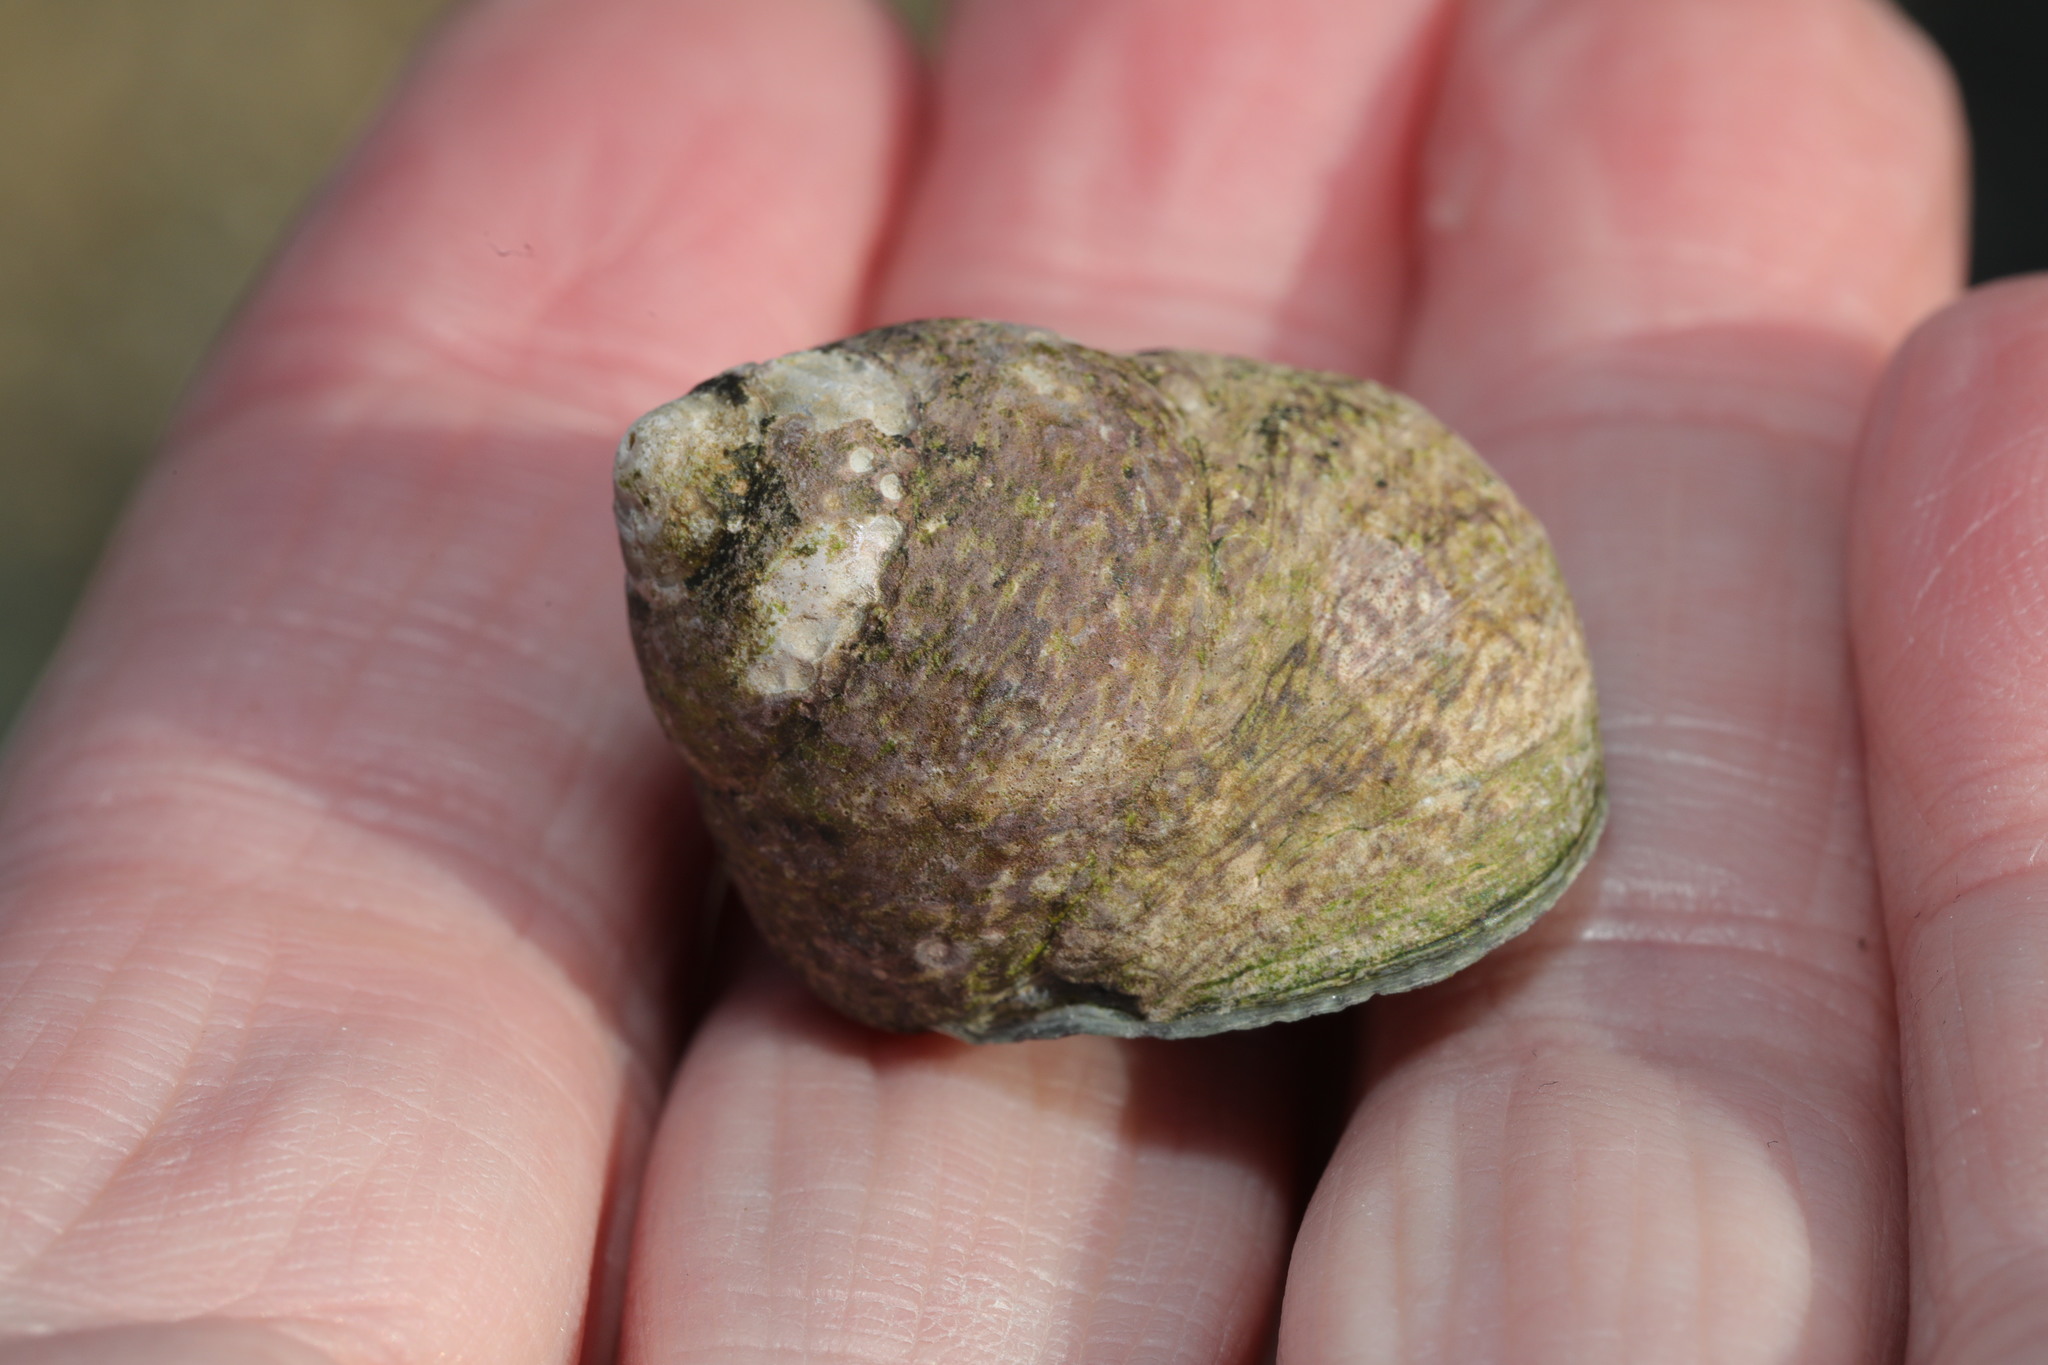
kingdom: Animalia
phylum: Mollusca
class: Gastropoda
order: Trochida
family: Trochidae
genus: Phorcus
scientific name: Phorcus lineatus
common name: Toothed top shell
